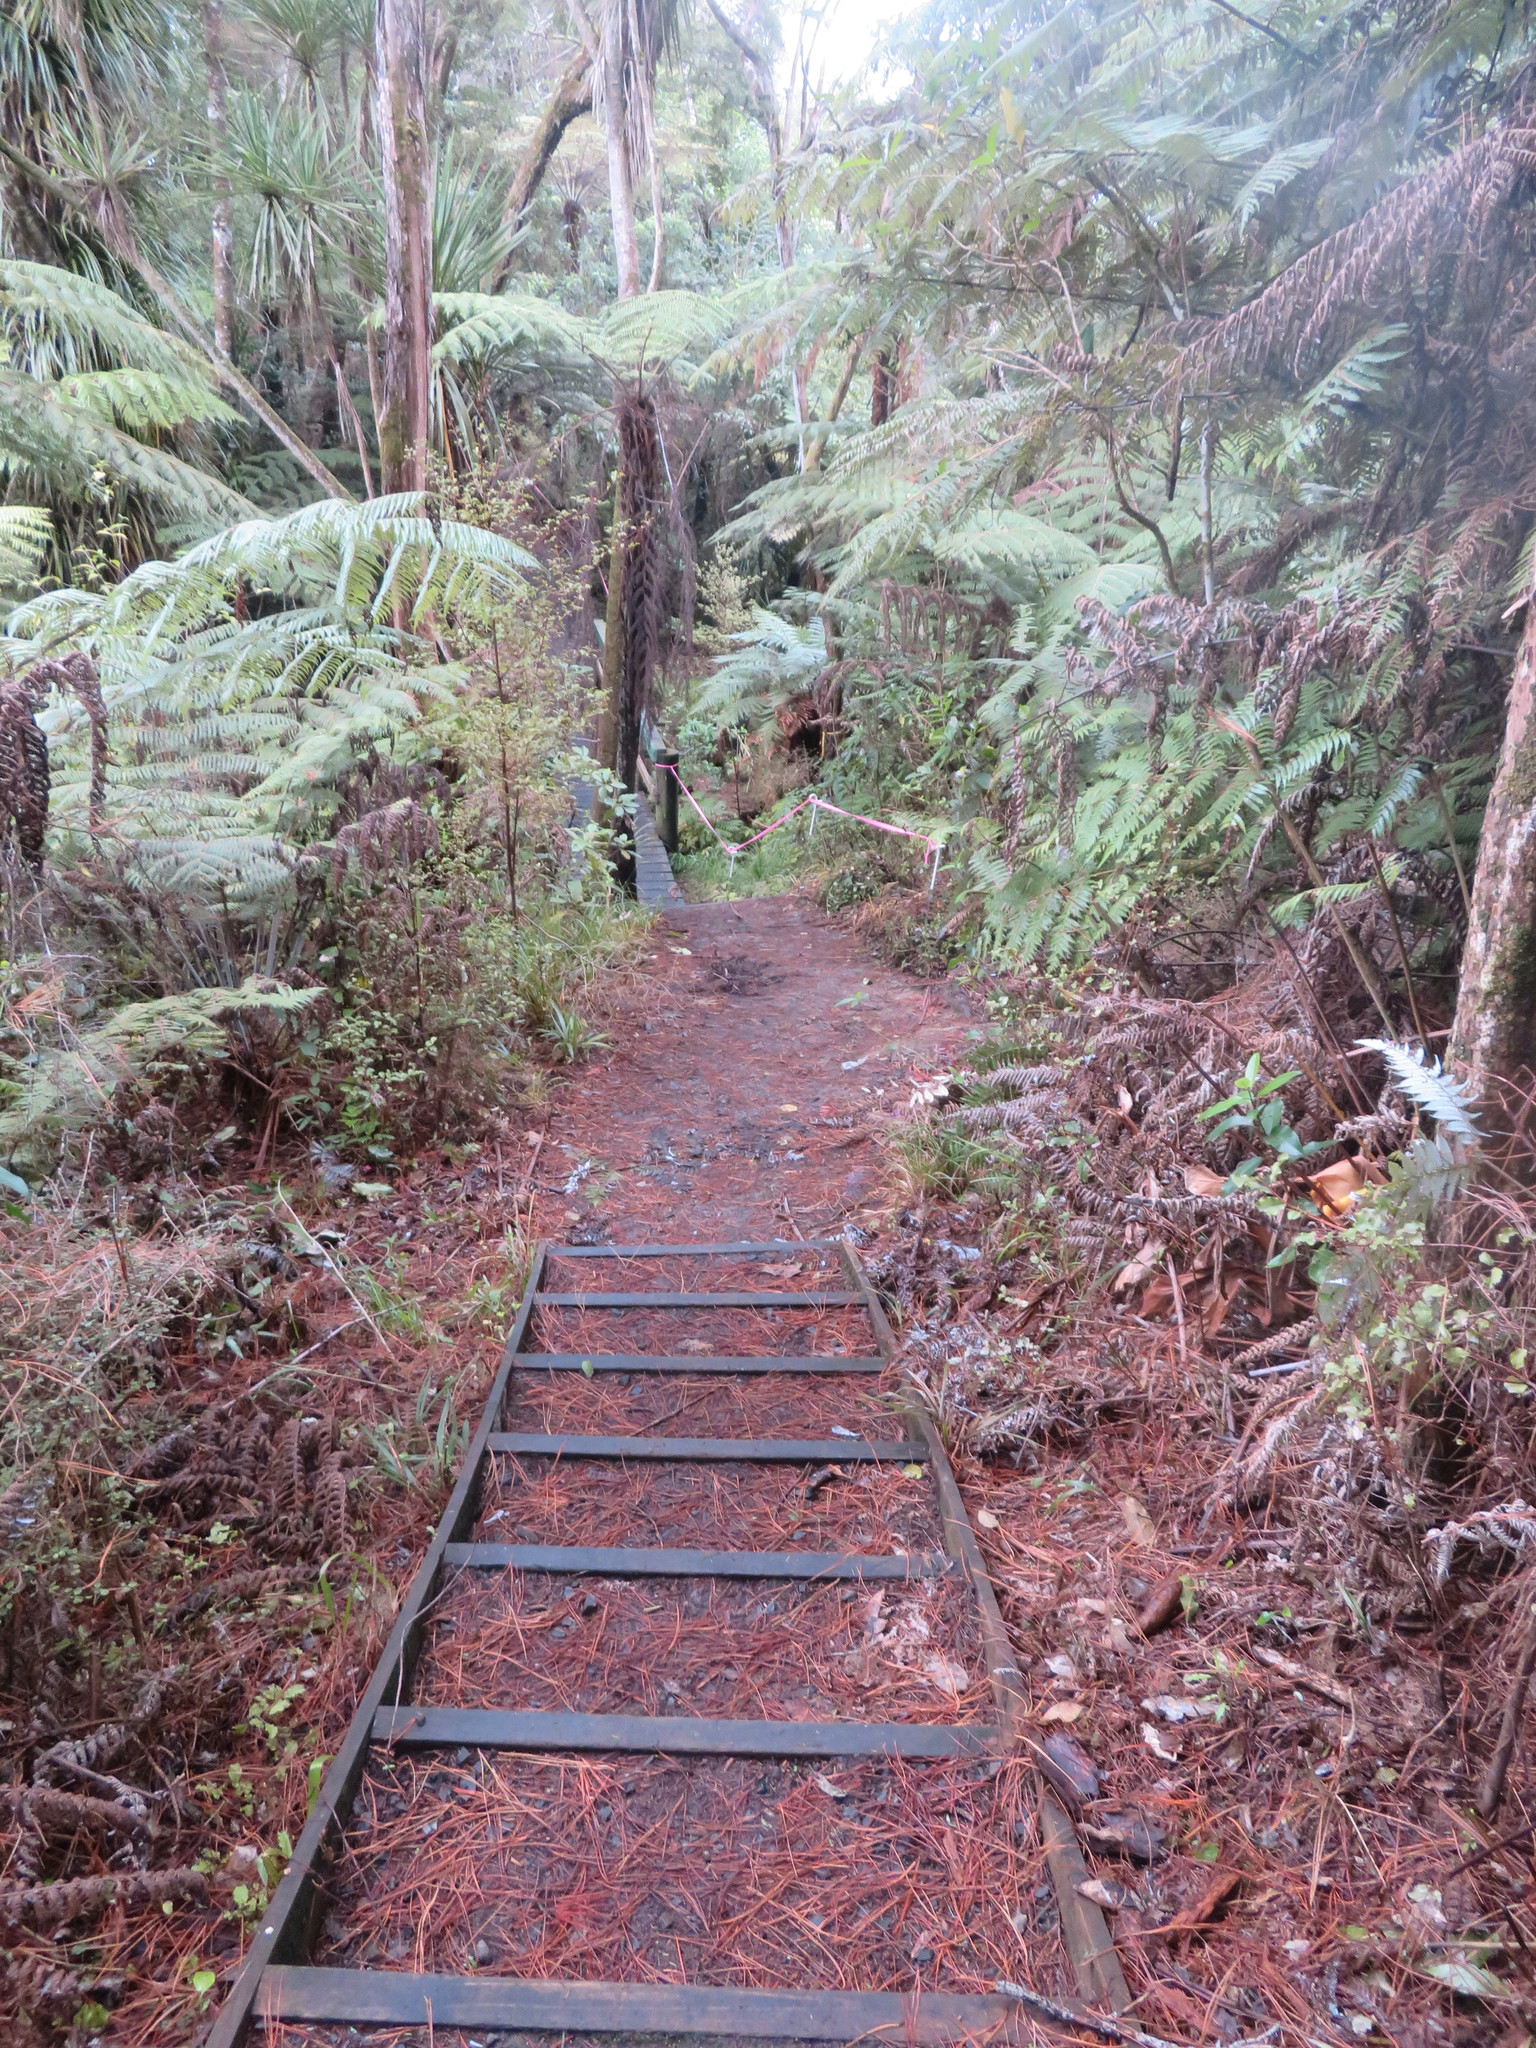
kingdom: Plantae
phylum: Tracheophyta
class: Polypodiopsida
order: Cyatheales
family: Cyatheaceae
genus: Alsophila
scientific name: Alsophila dealbata
